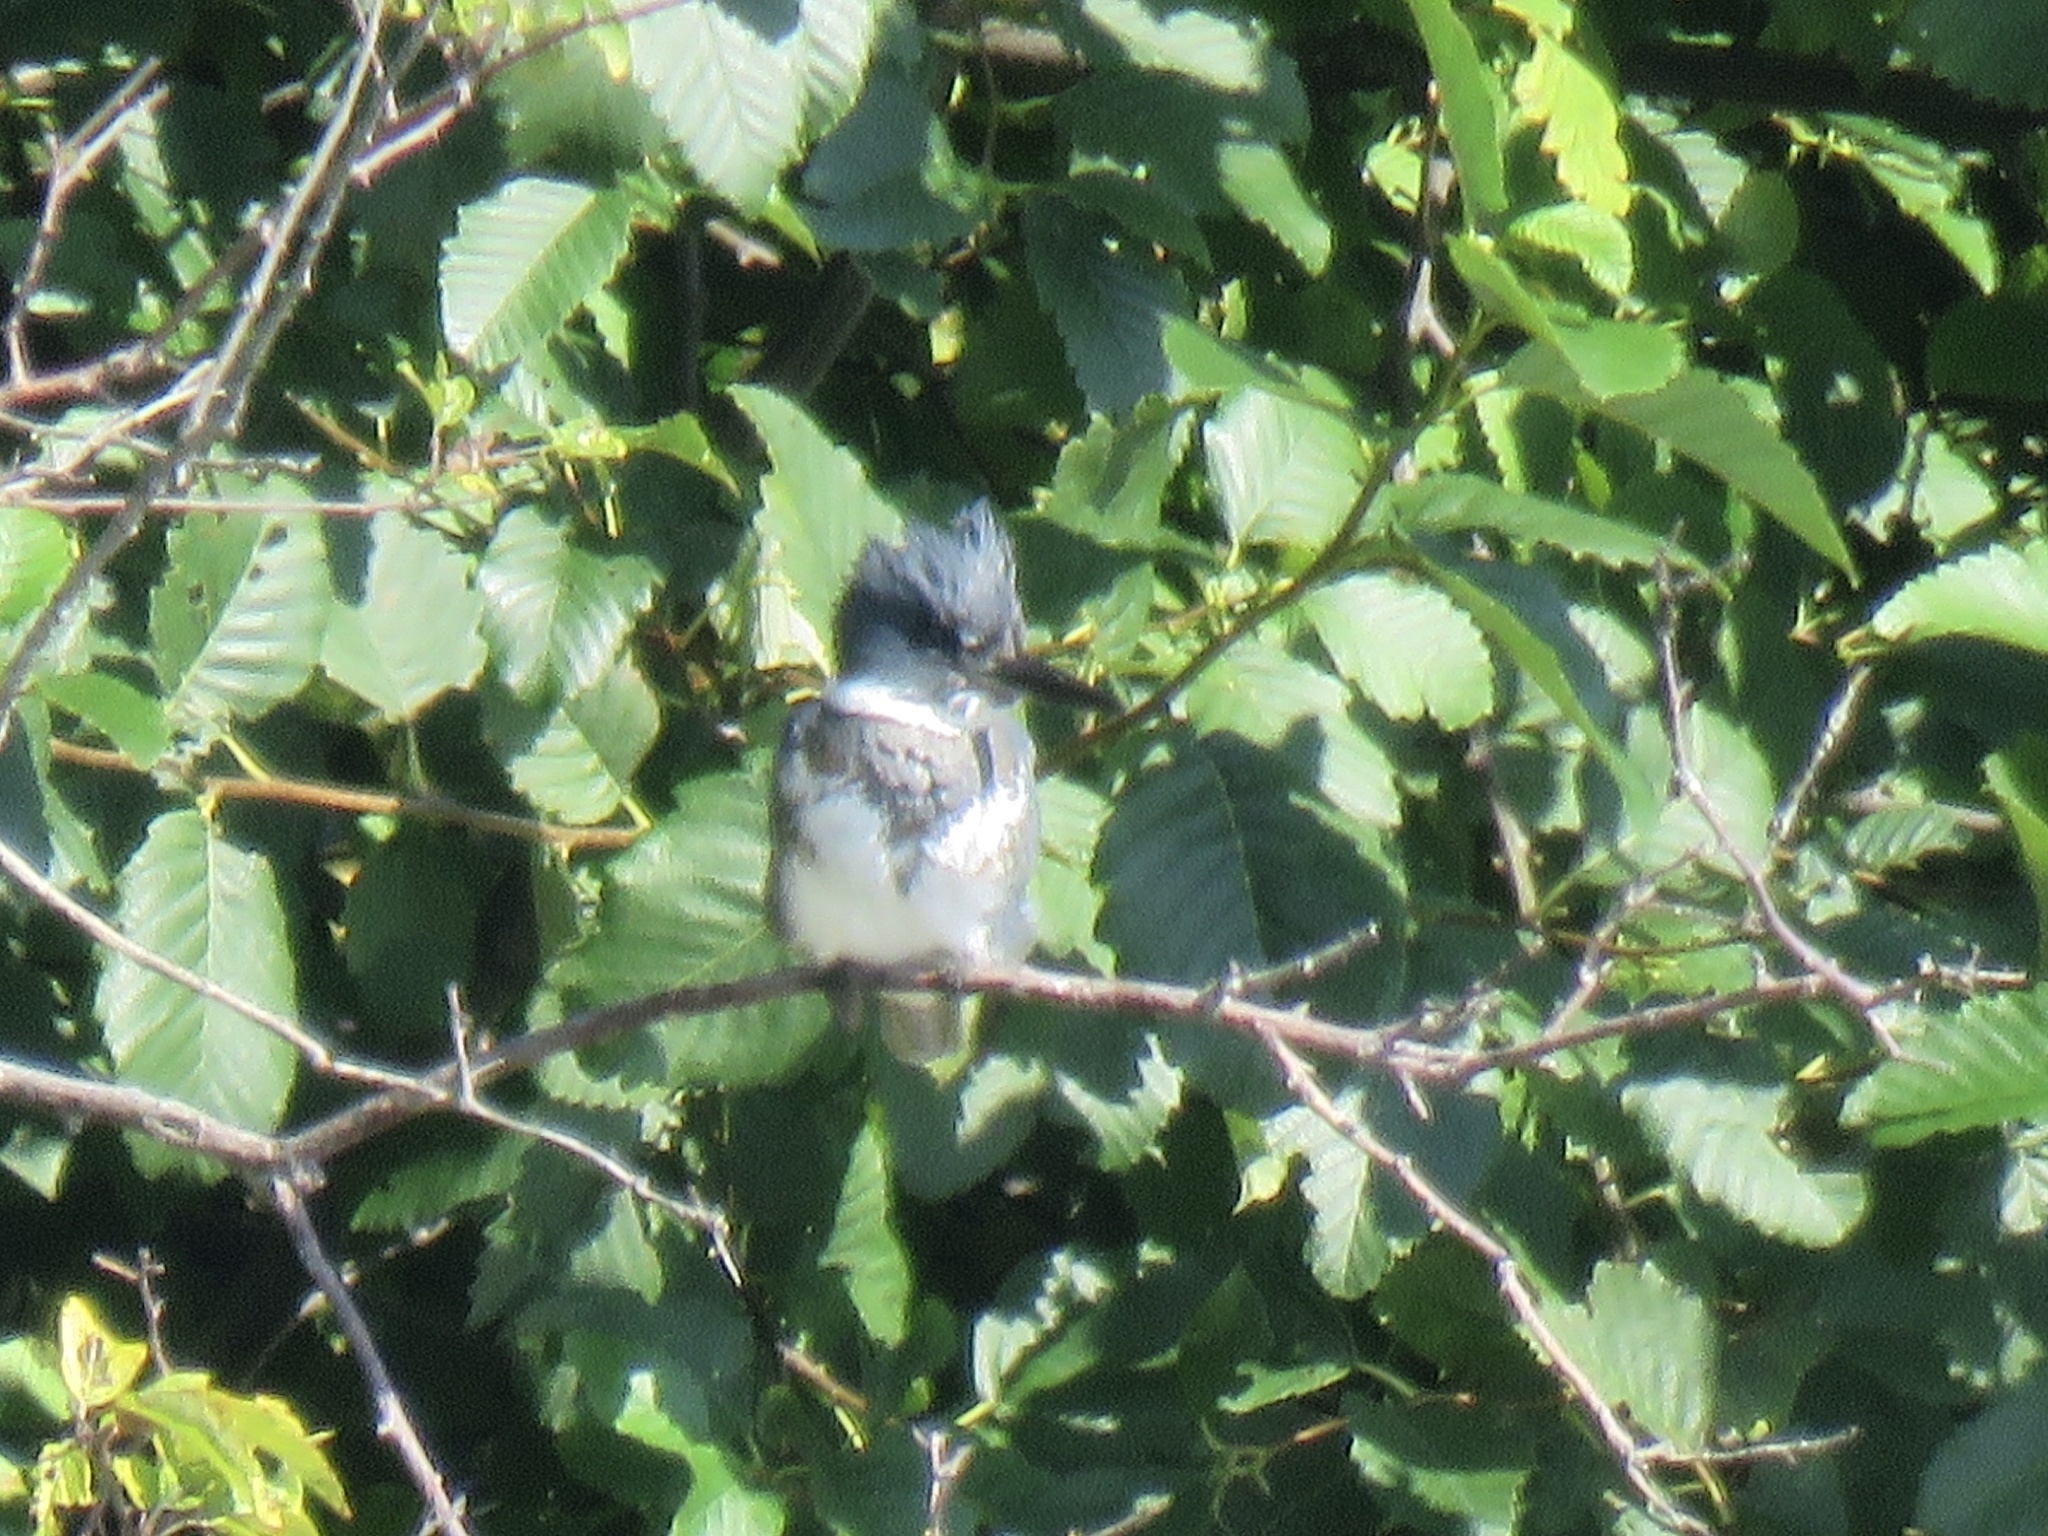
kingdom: Animalia
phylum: Chordata
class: Aves
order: Coraciiformes
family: Alcedinidae
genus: Megaceryle
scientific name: Megaceryle alcyon
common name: Belted kingfisher
